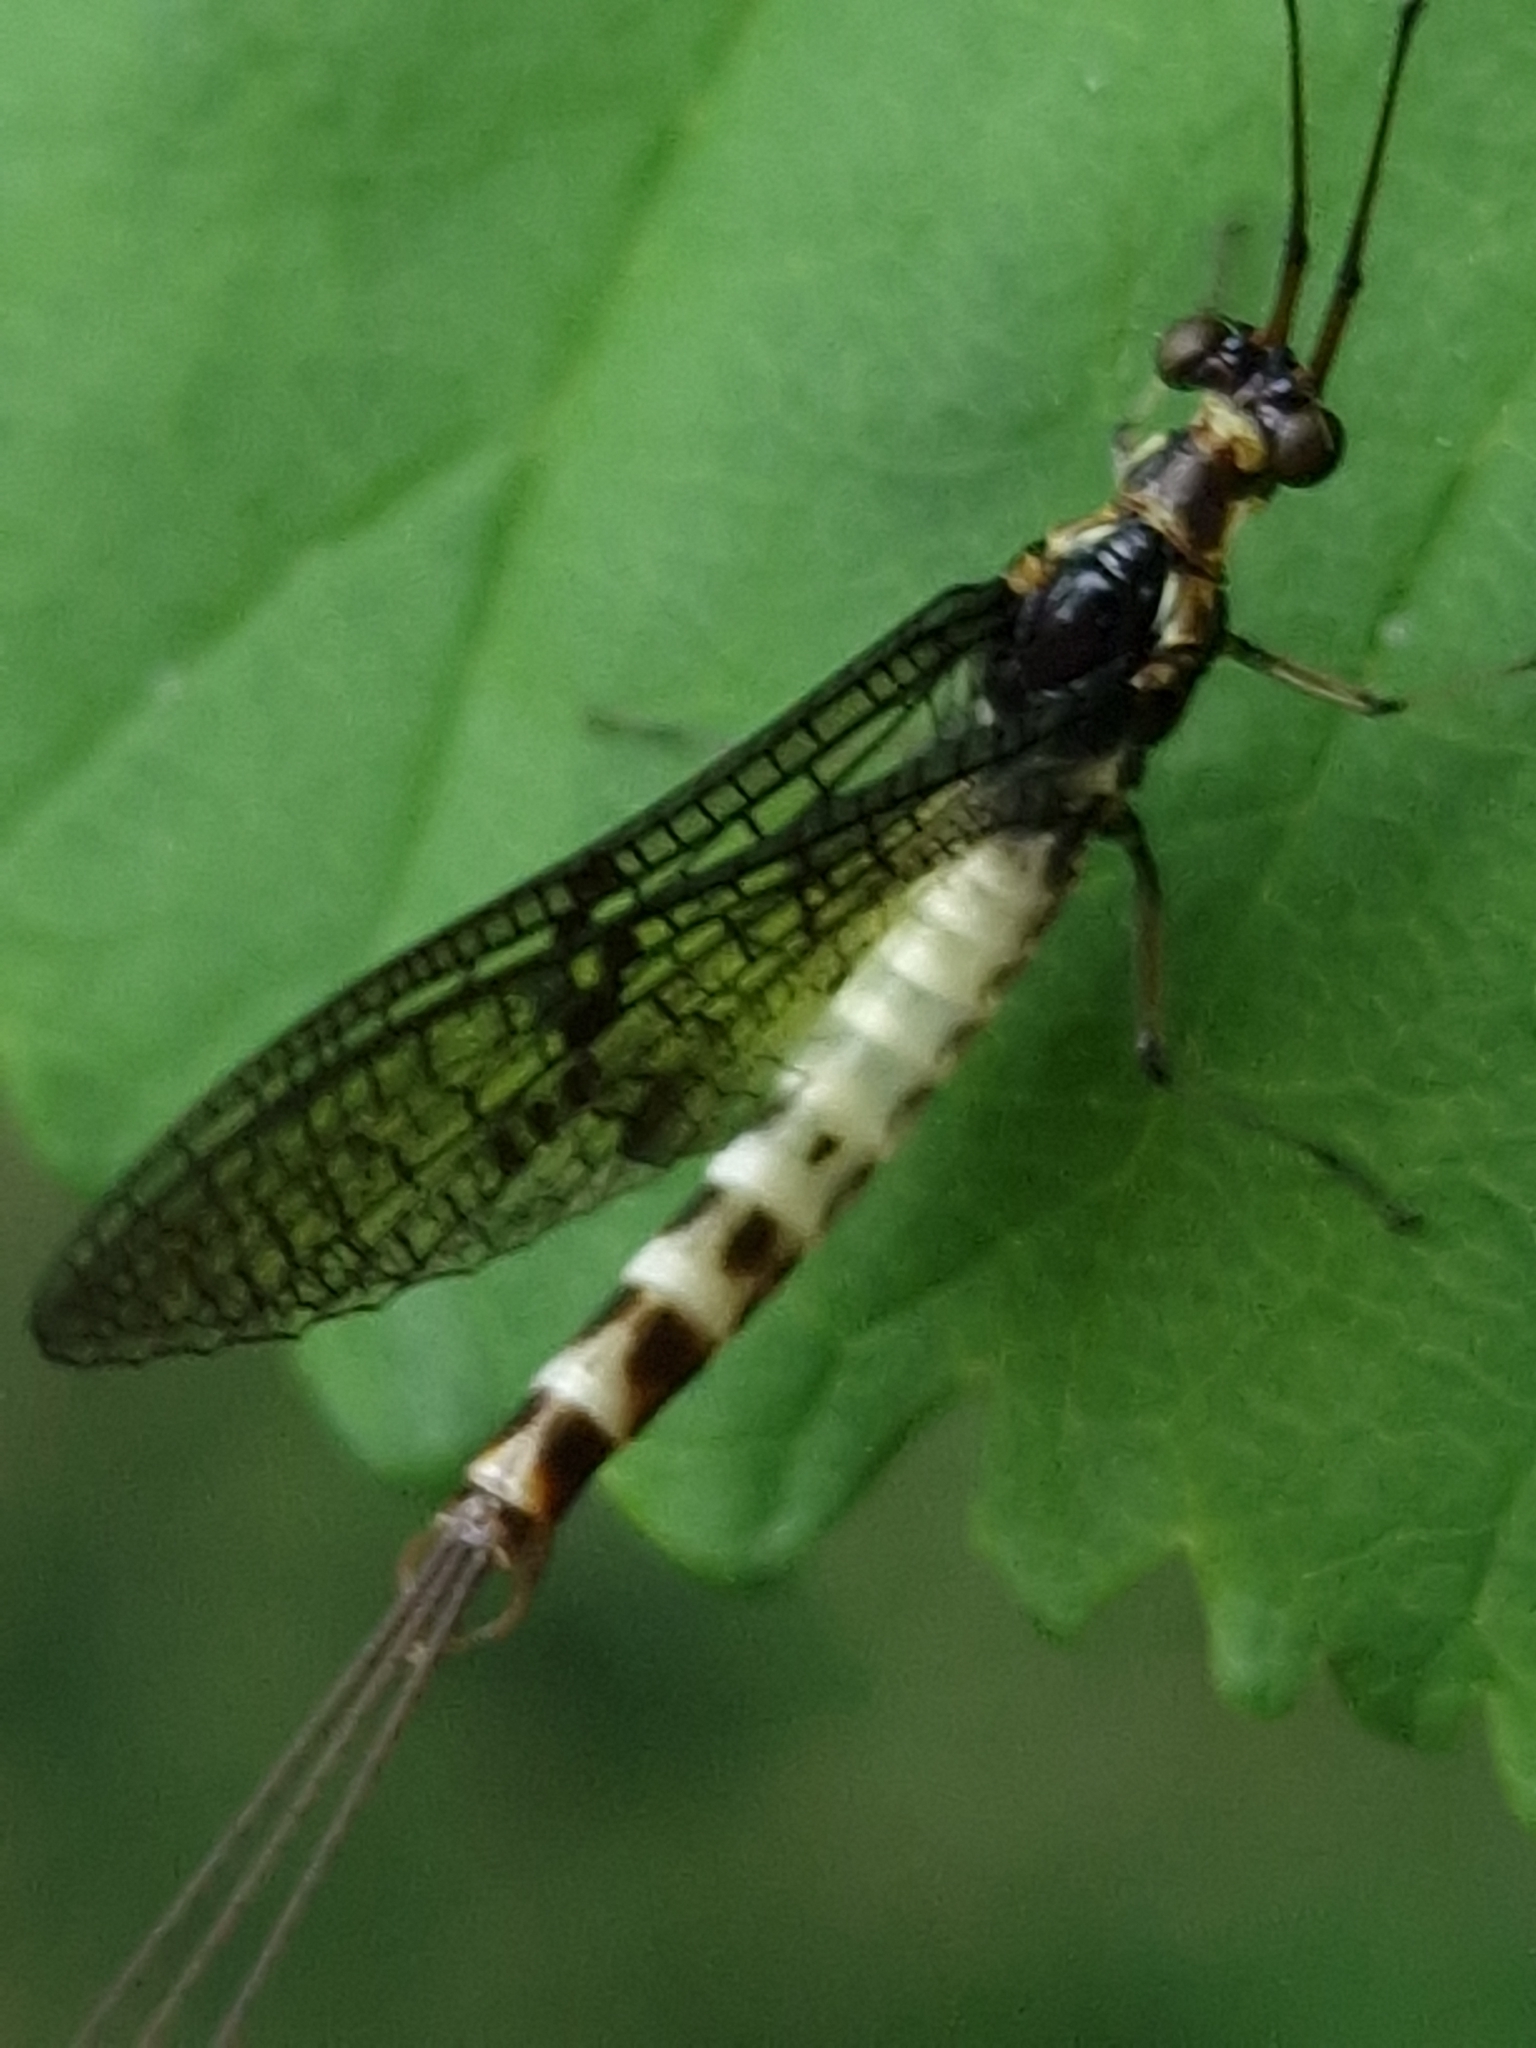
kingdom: Animalia
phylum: Arthropoda
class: Insecta
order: Ephemeroptera
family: Ephemeridae
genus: Ephemera
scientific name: Ephemera danica
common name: Green dun
